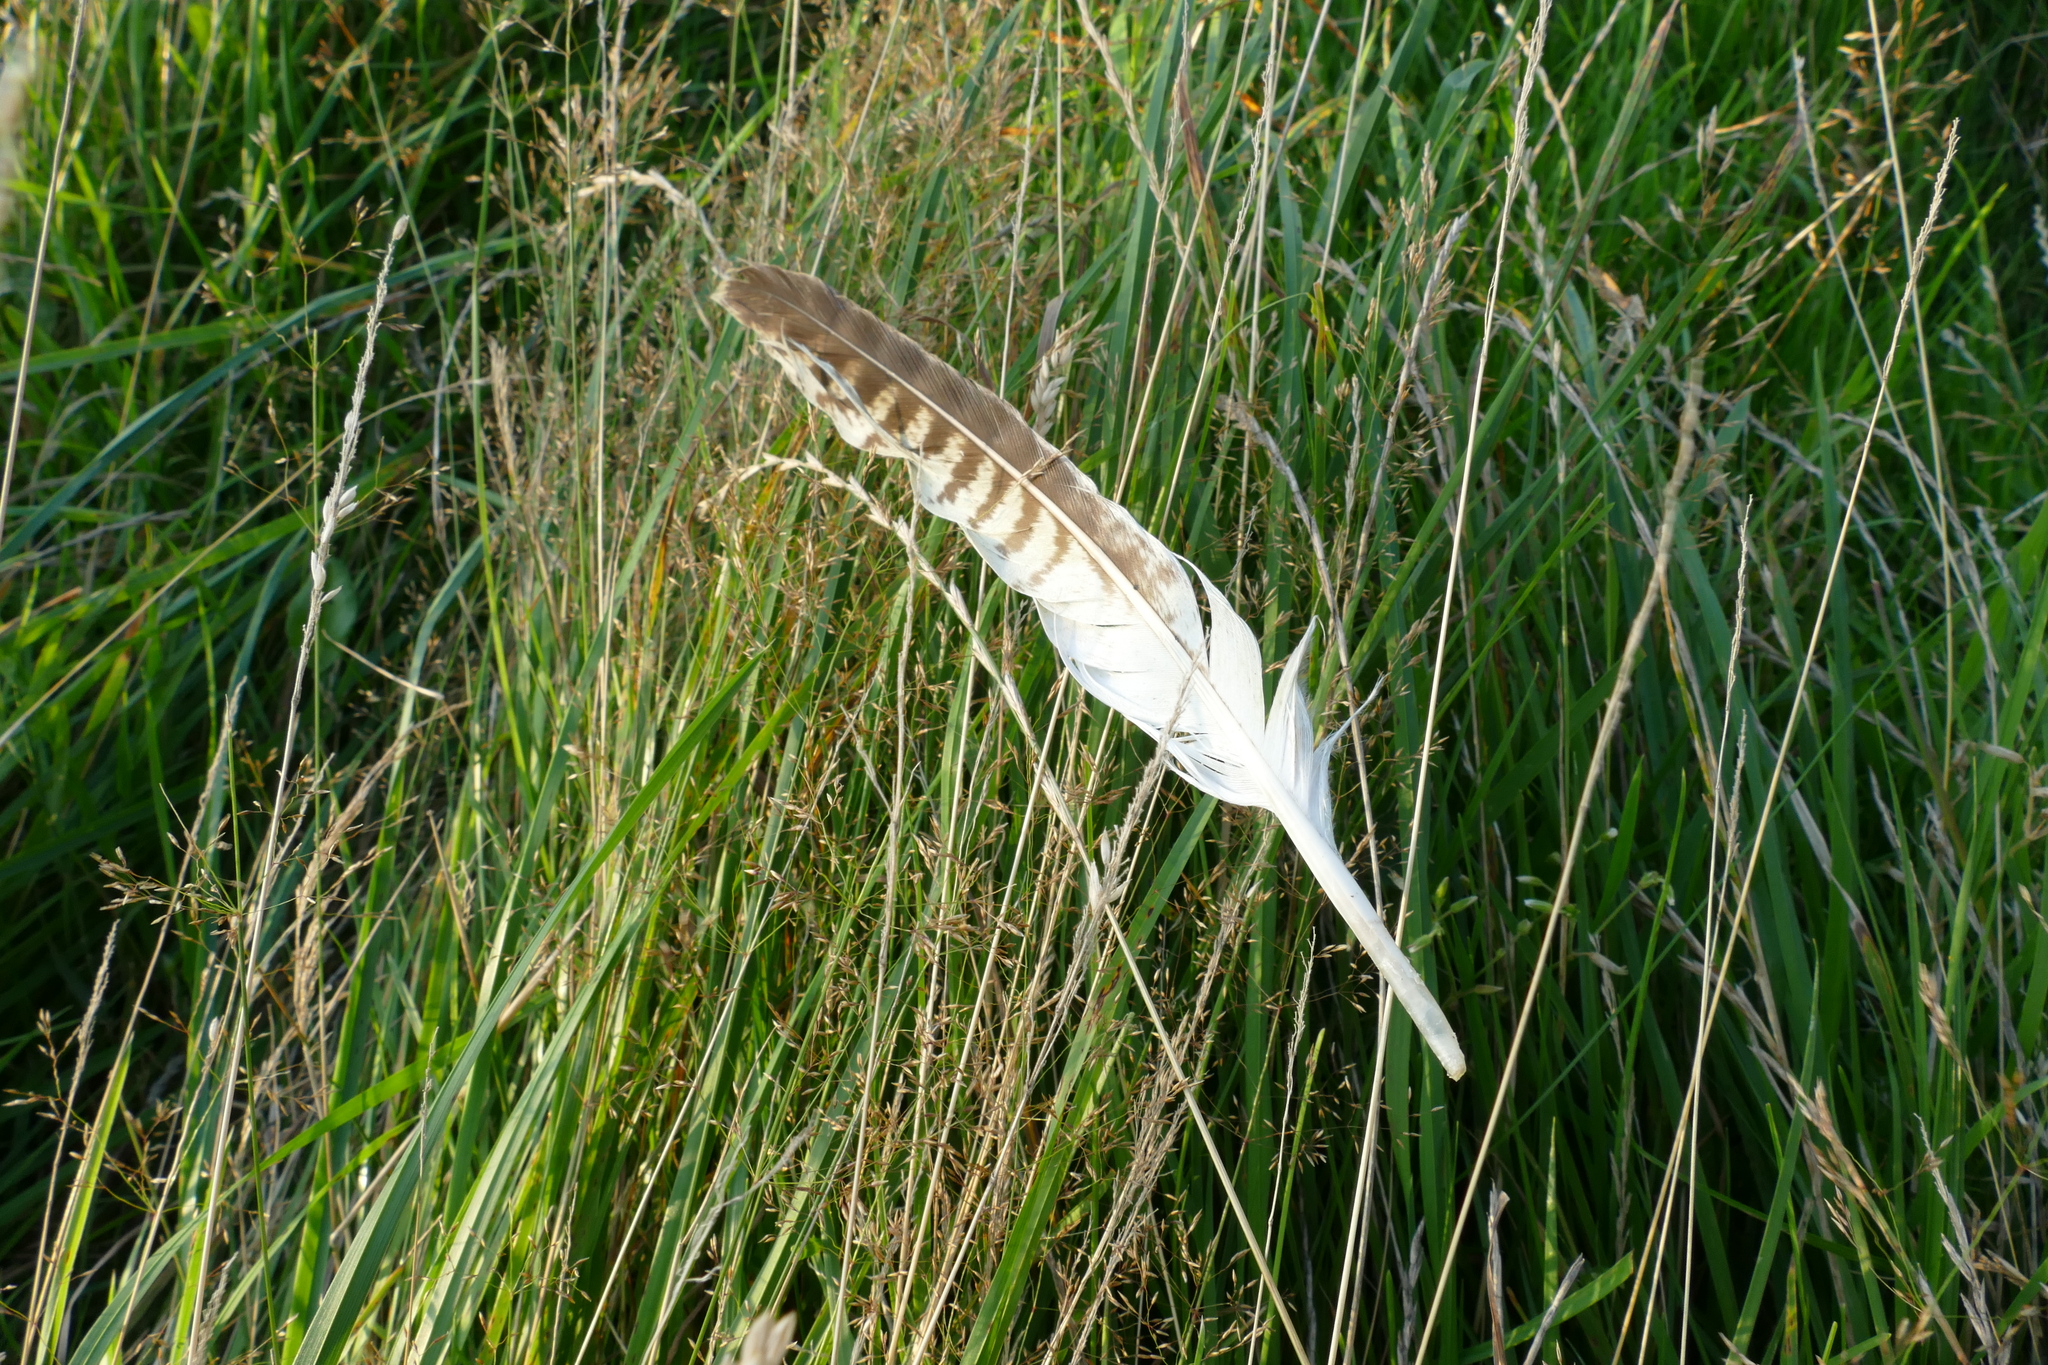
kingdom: Animalia
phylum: Chordata
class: Aves
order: Accipitriformes
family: Accipitridae
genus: Buteo
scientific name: Buteo buteo
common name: Common buzzard
